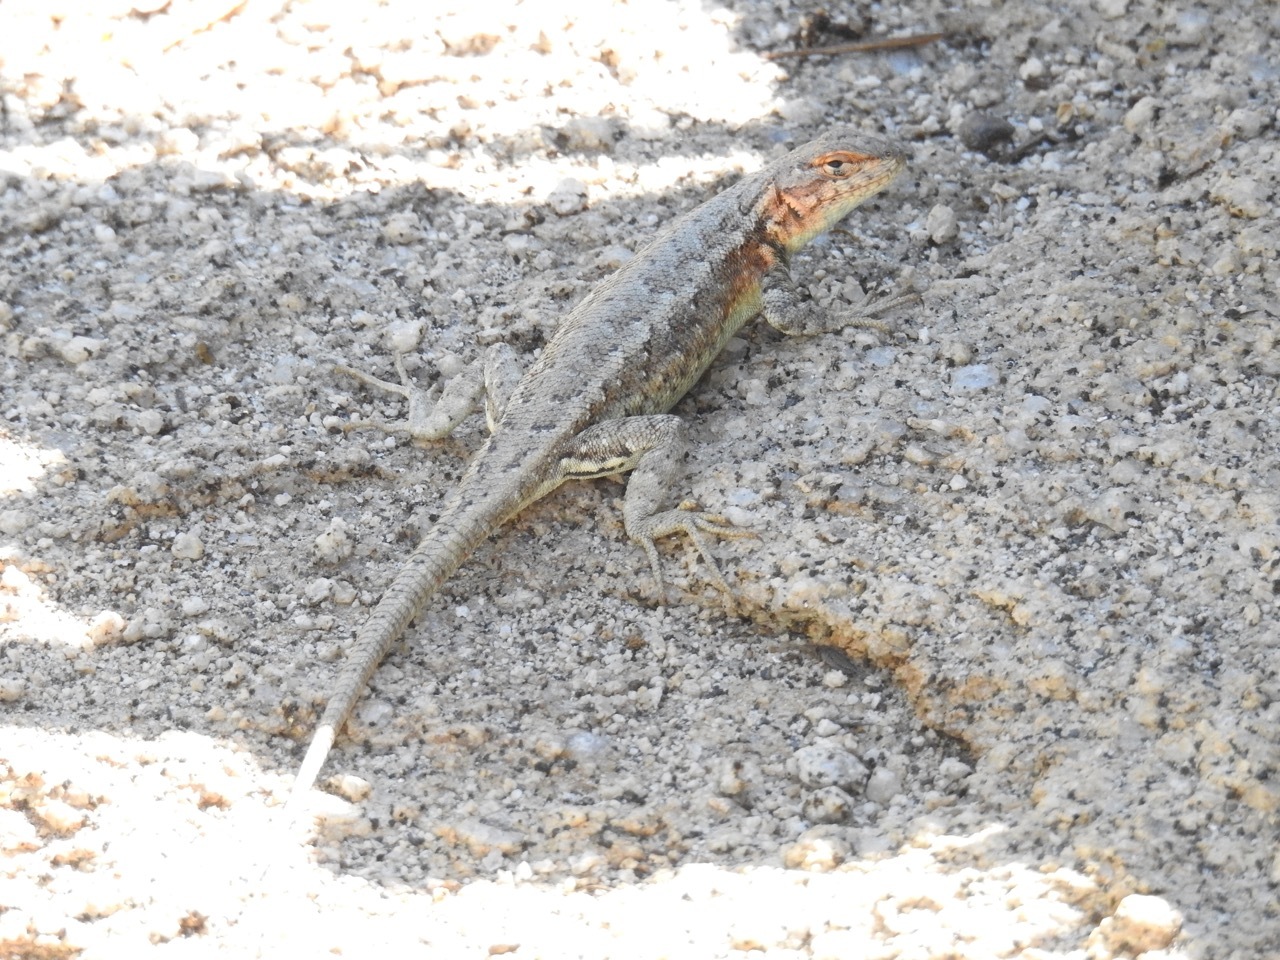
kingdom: Animalia
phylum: Chordata
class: Squamata
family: Phrynosomatidae
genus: Sceloporus
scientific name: Sceloporus graciosus
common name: Sagebrush lizard
